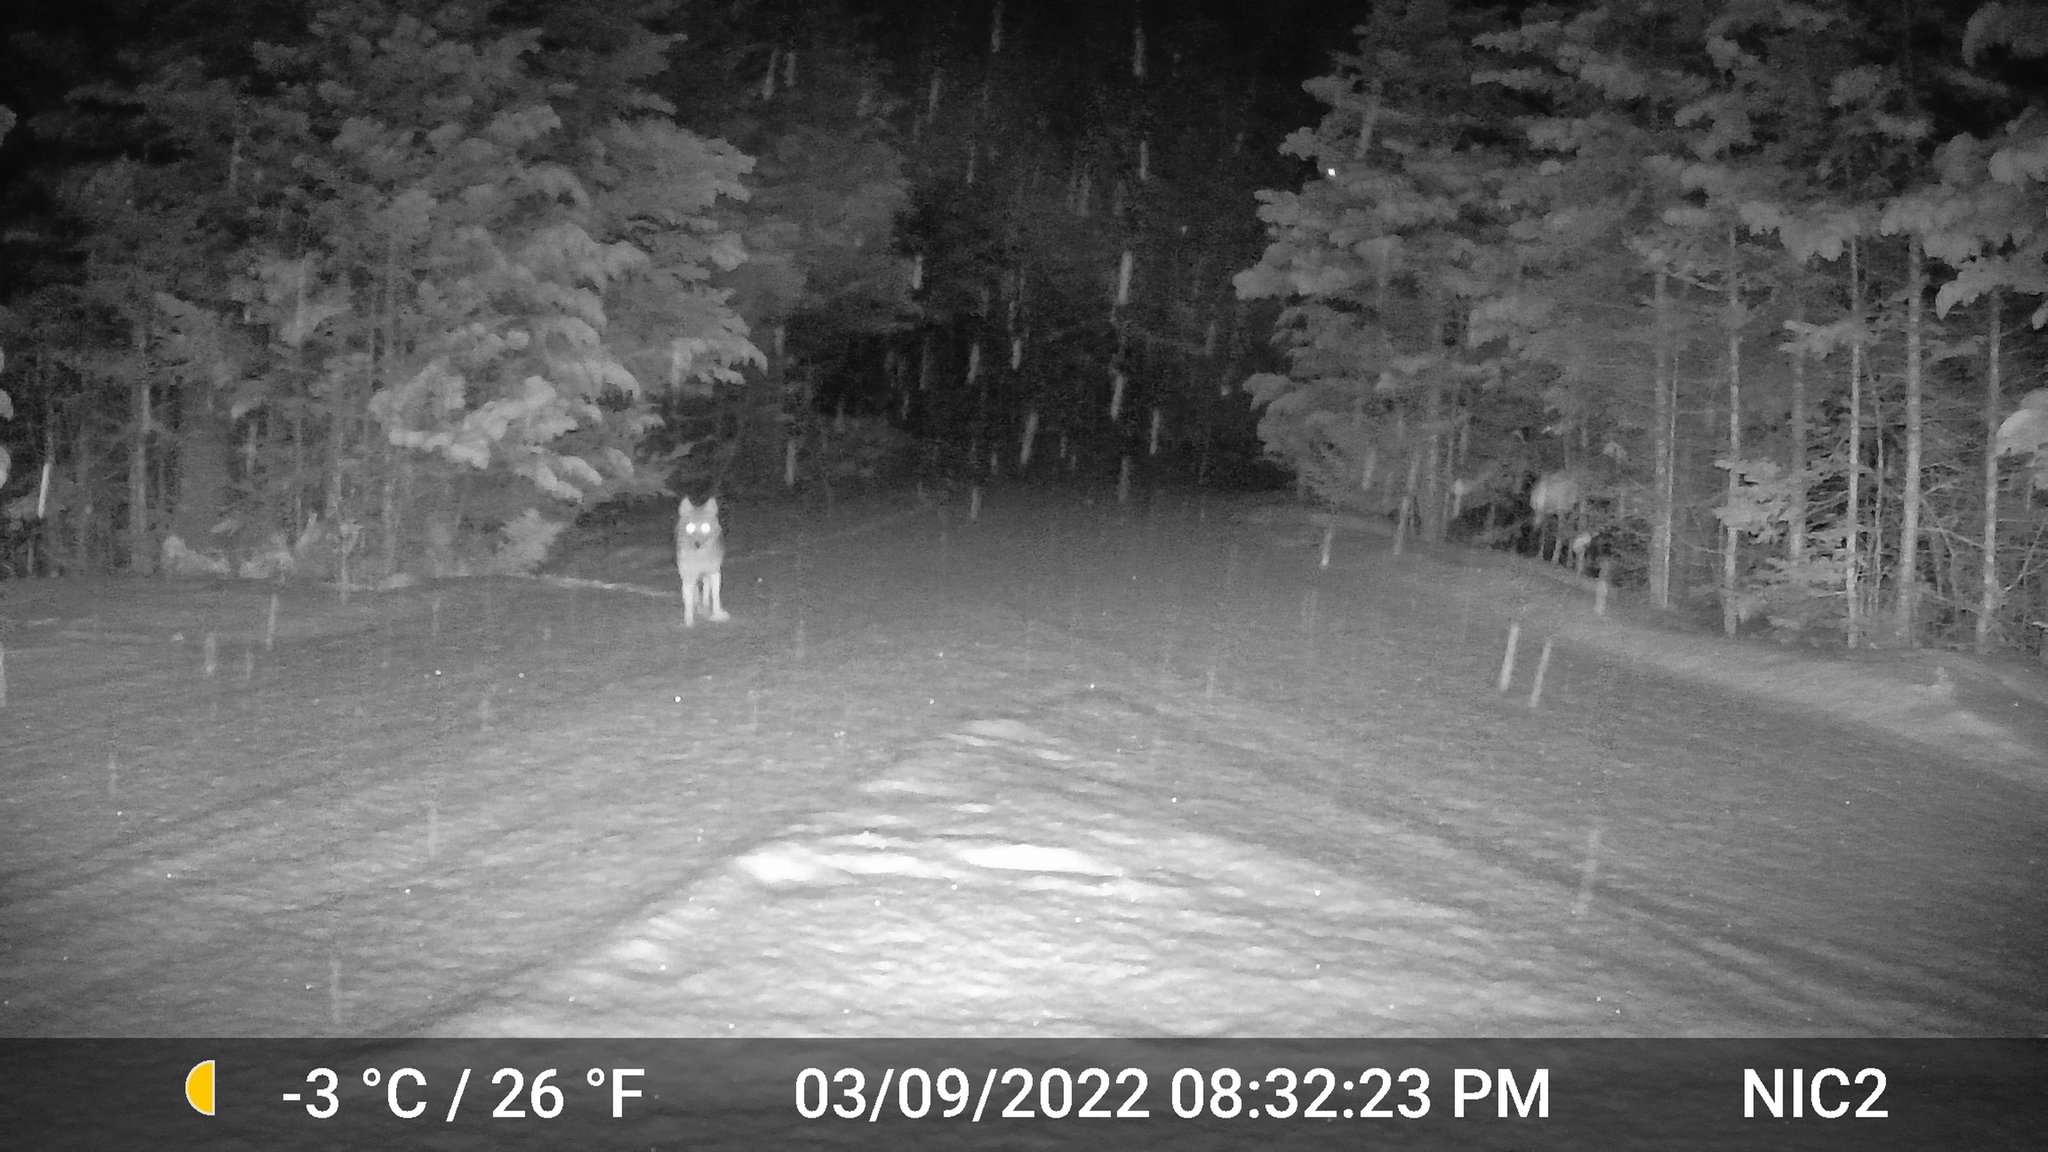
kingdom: Animalia
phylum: Chordata
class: Mammalia
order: Carnivora
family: Canidae
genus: Canis
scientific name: Canis latrans
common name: Coyote
